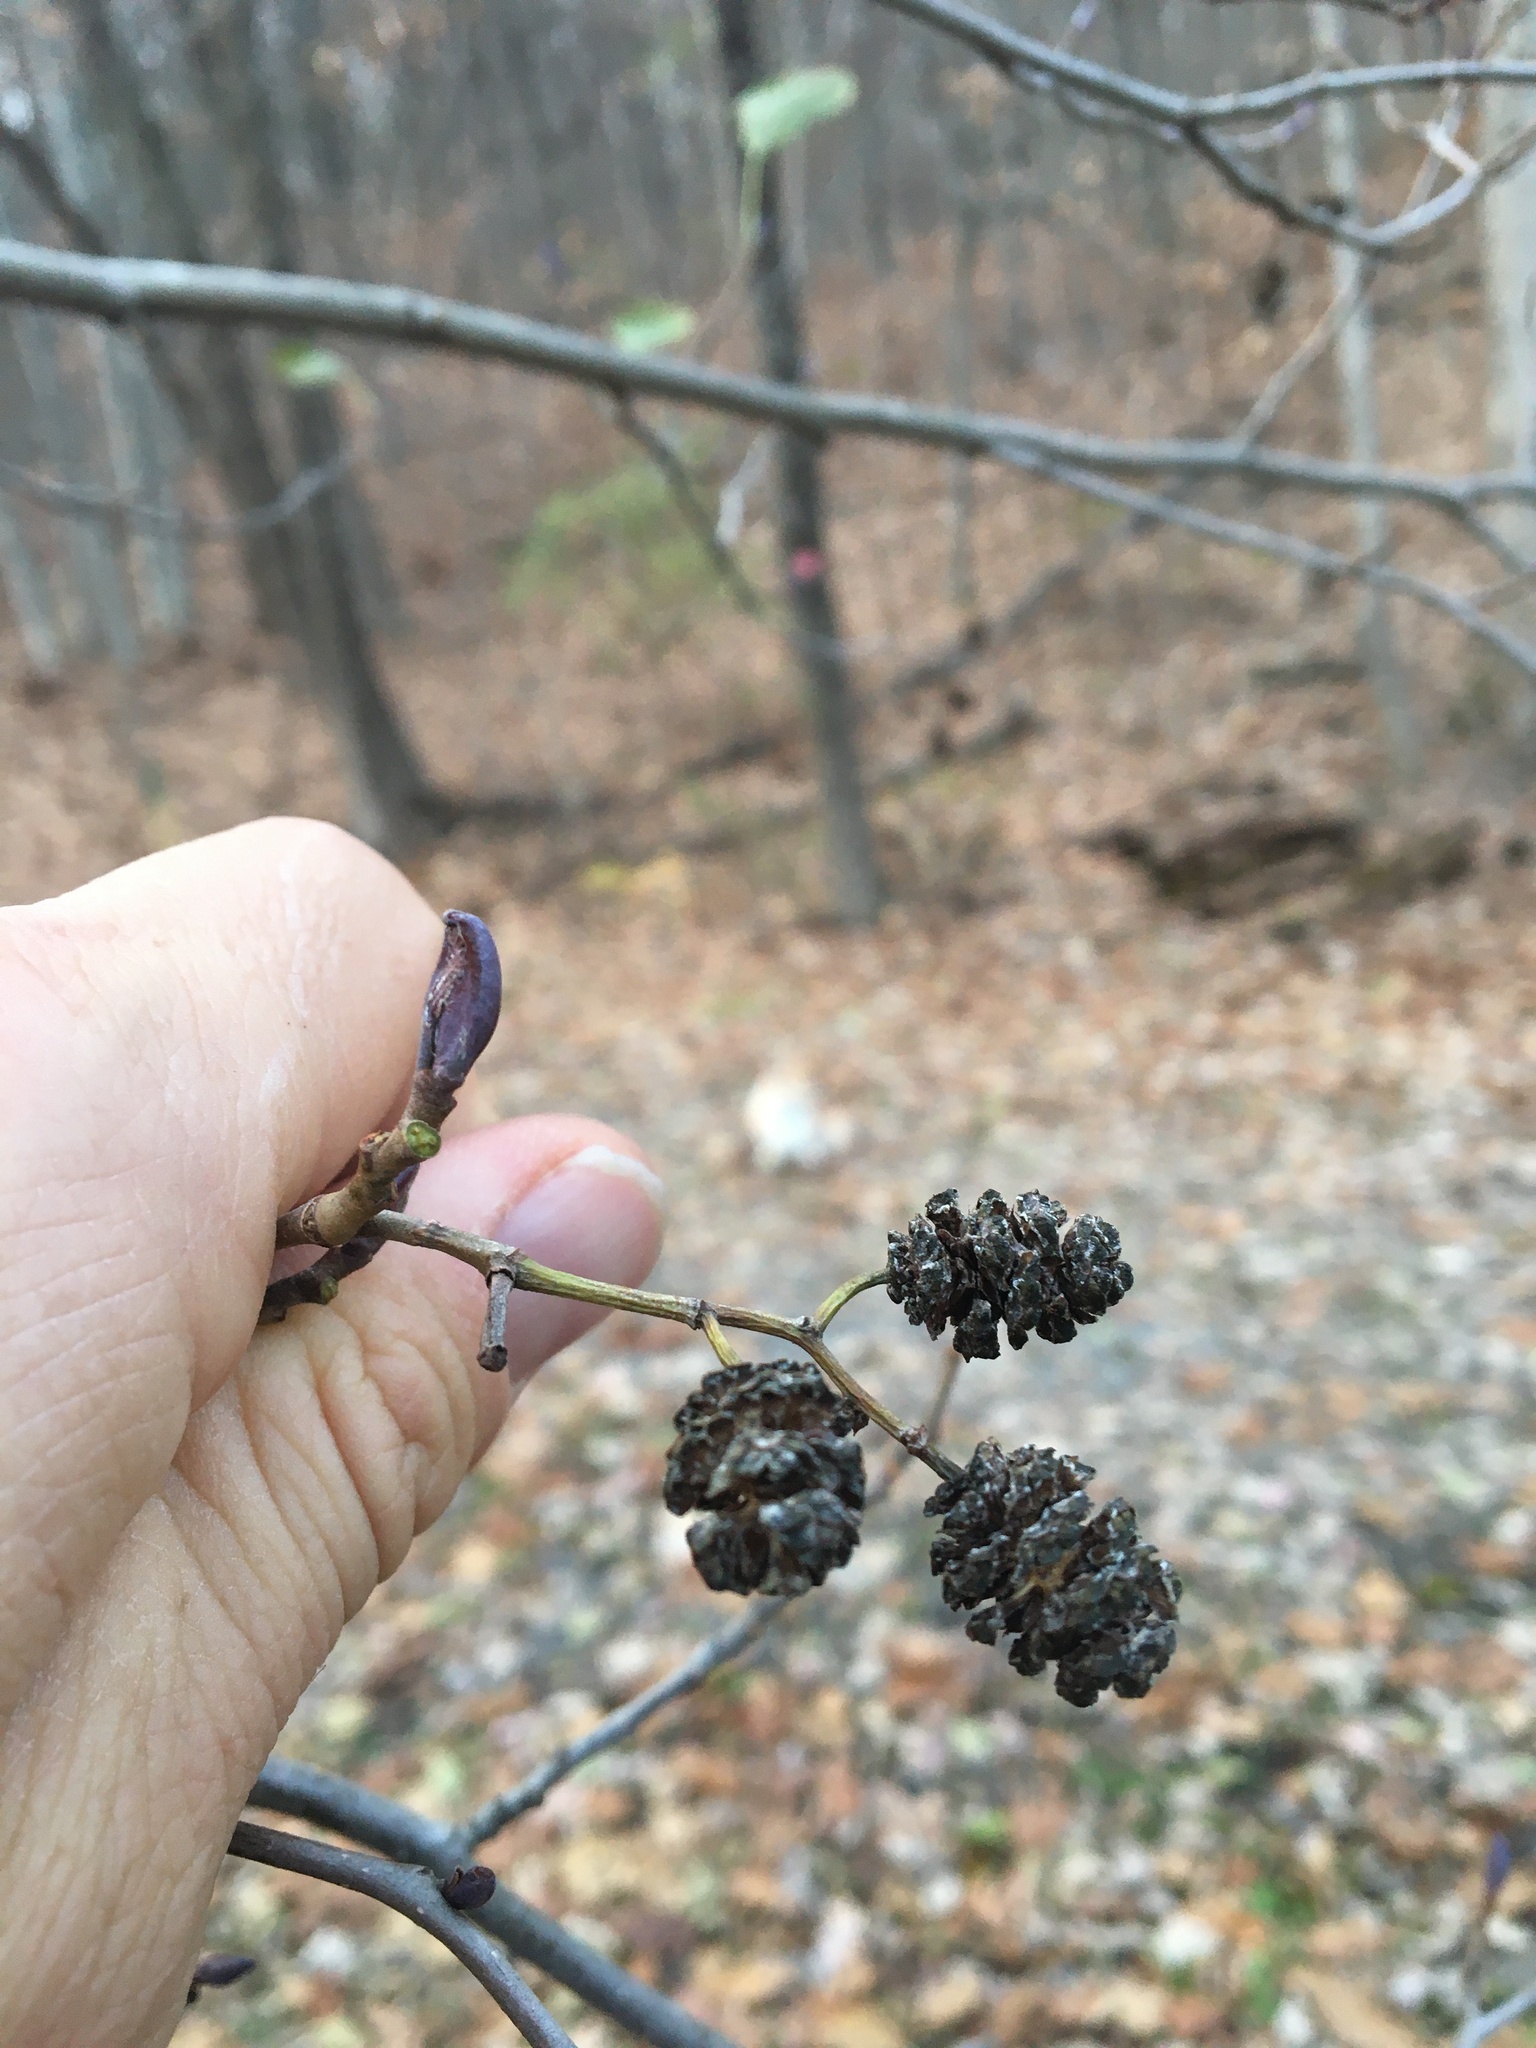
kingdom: Plantae
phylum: Tracheophyta
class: Magnoliopsida
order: Fagales
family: Betulaceae
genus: Alnus
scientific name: Alnus glutinosa
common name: Black alder
